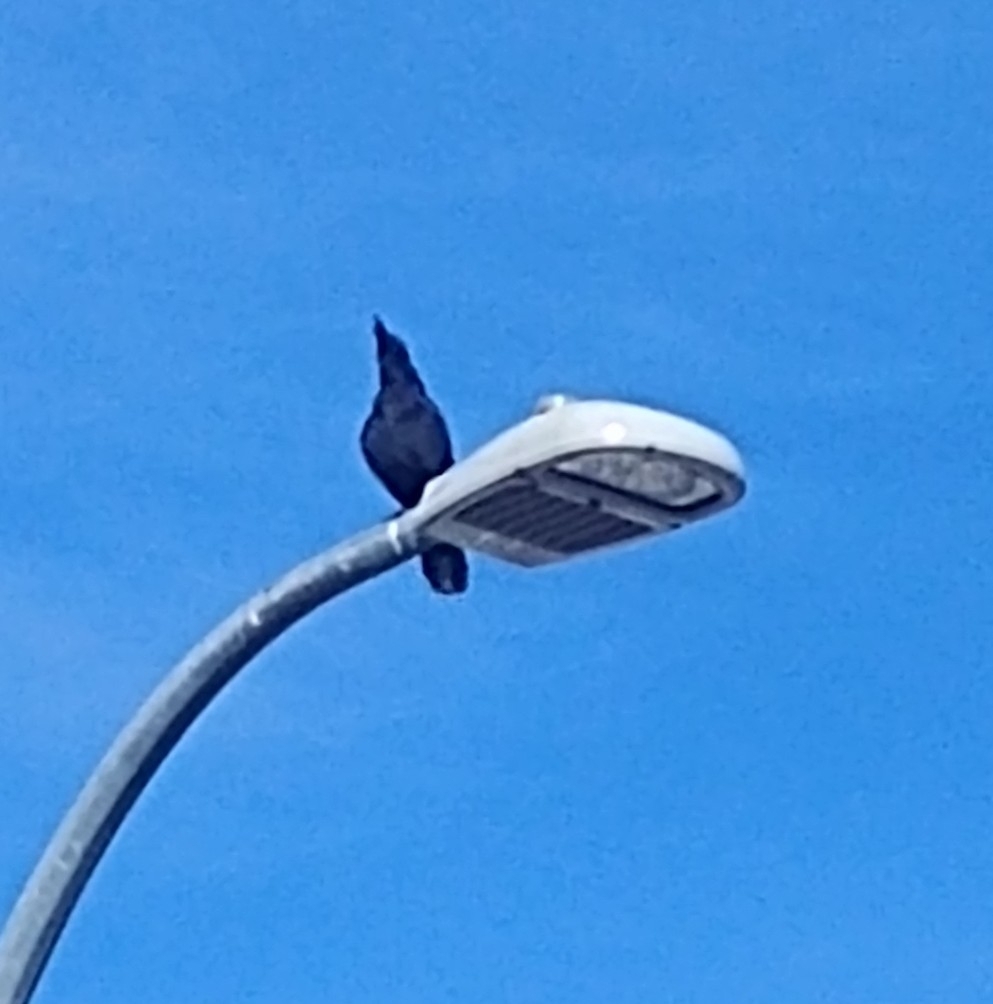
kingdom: Animalia
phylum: Chordata
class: Aves
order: Passeriformes
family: Corvidae
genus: Corvus
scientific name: Corvus brachyrhynchos
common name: American crow
